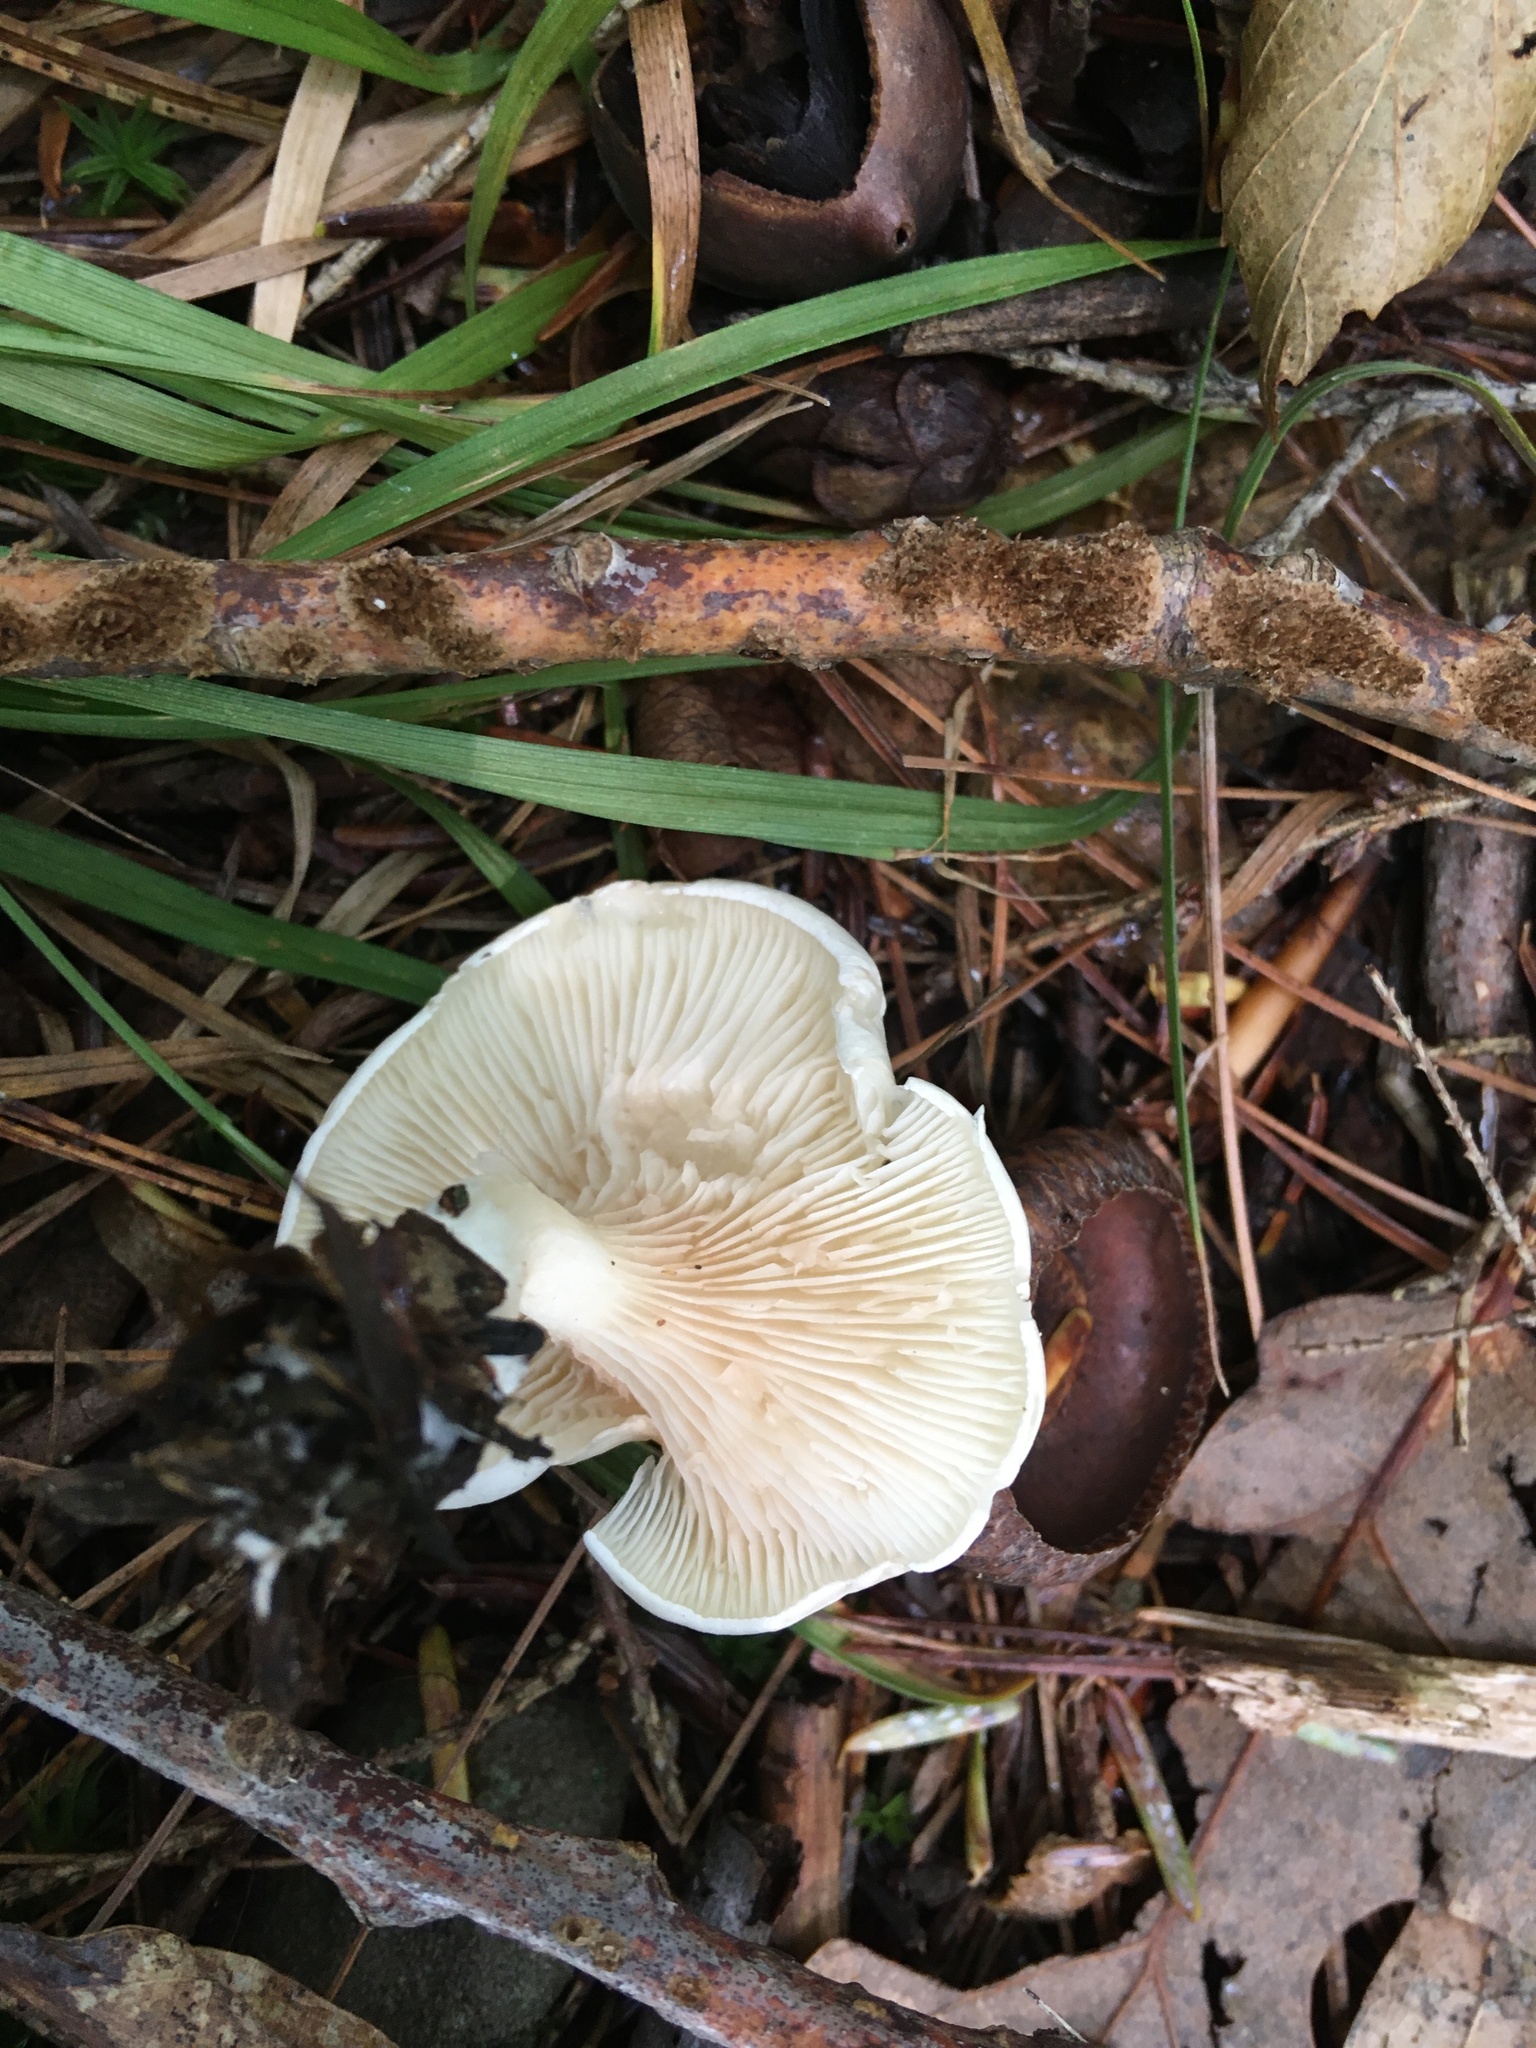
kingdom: Fungi
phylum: Basidiomycota
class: Agaricomycetes
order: Agaricales
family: Entolomataceae
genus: Clitopilus
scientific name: Clitopilus prunulus
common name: The miller
